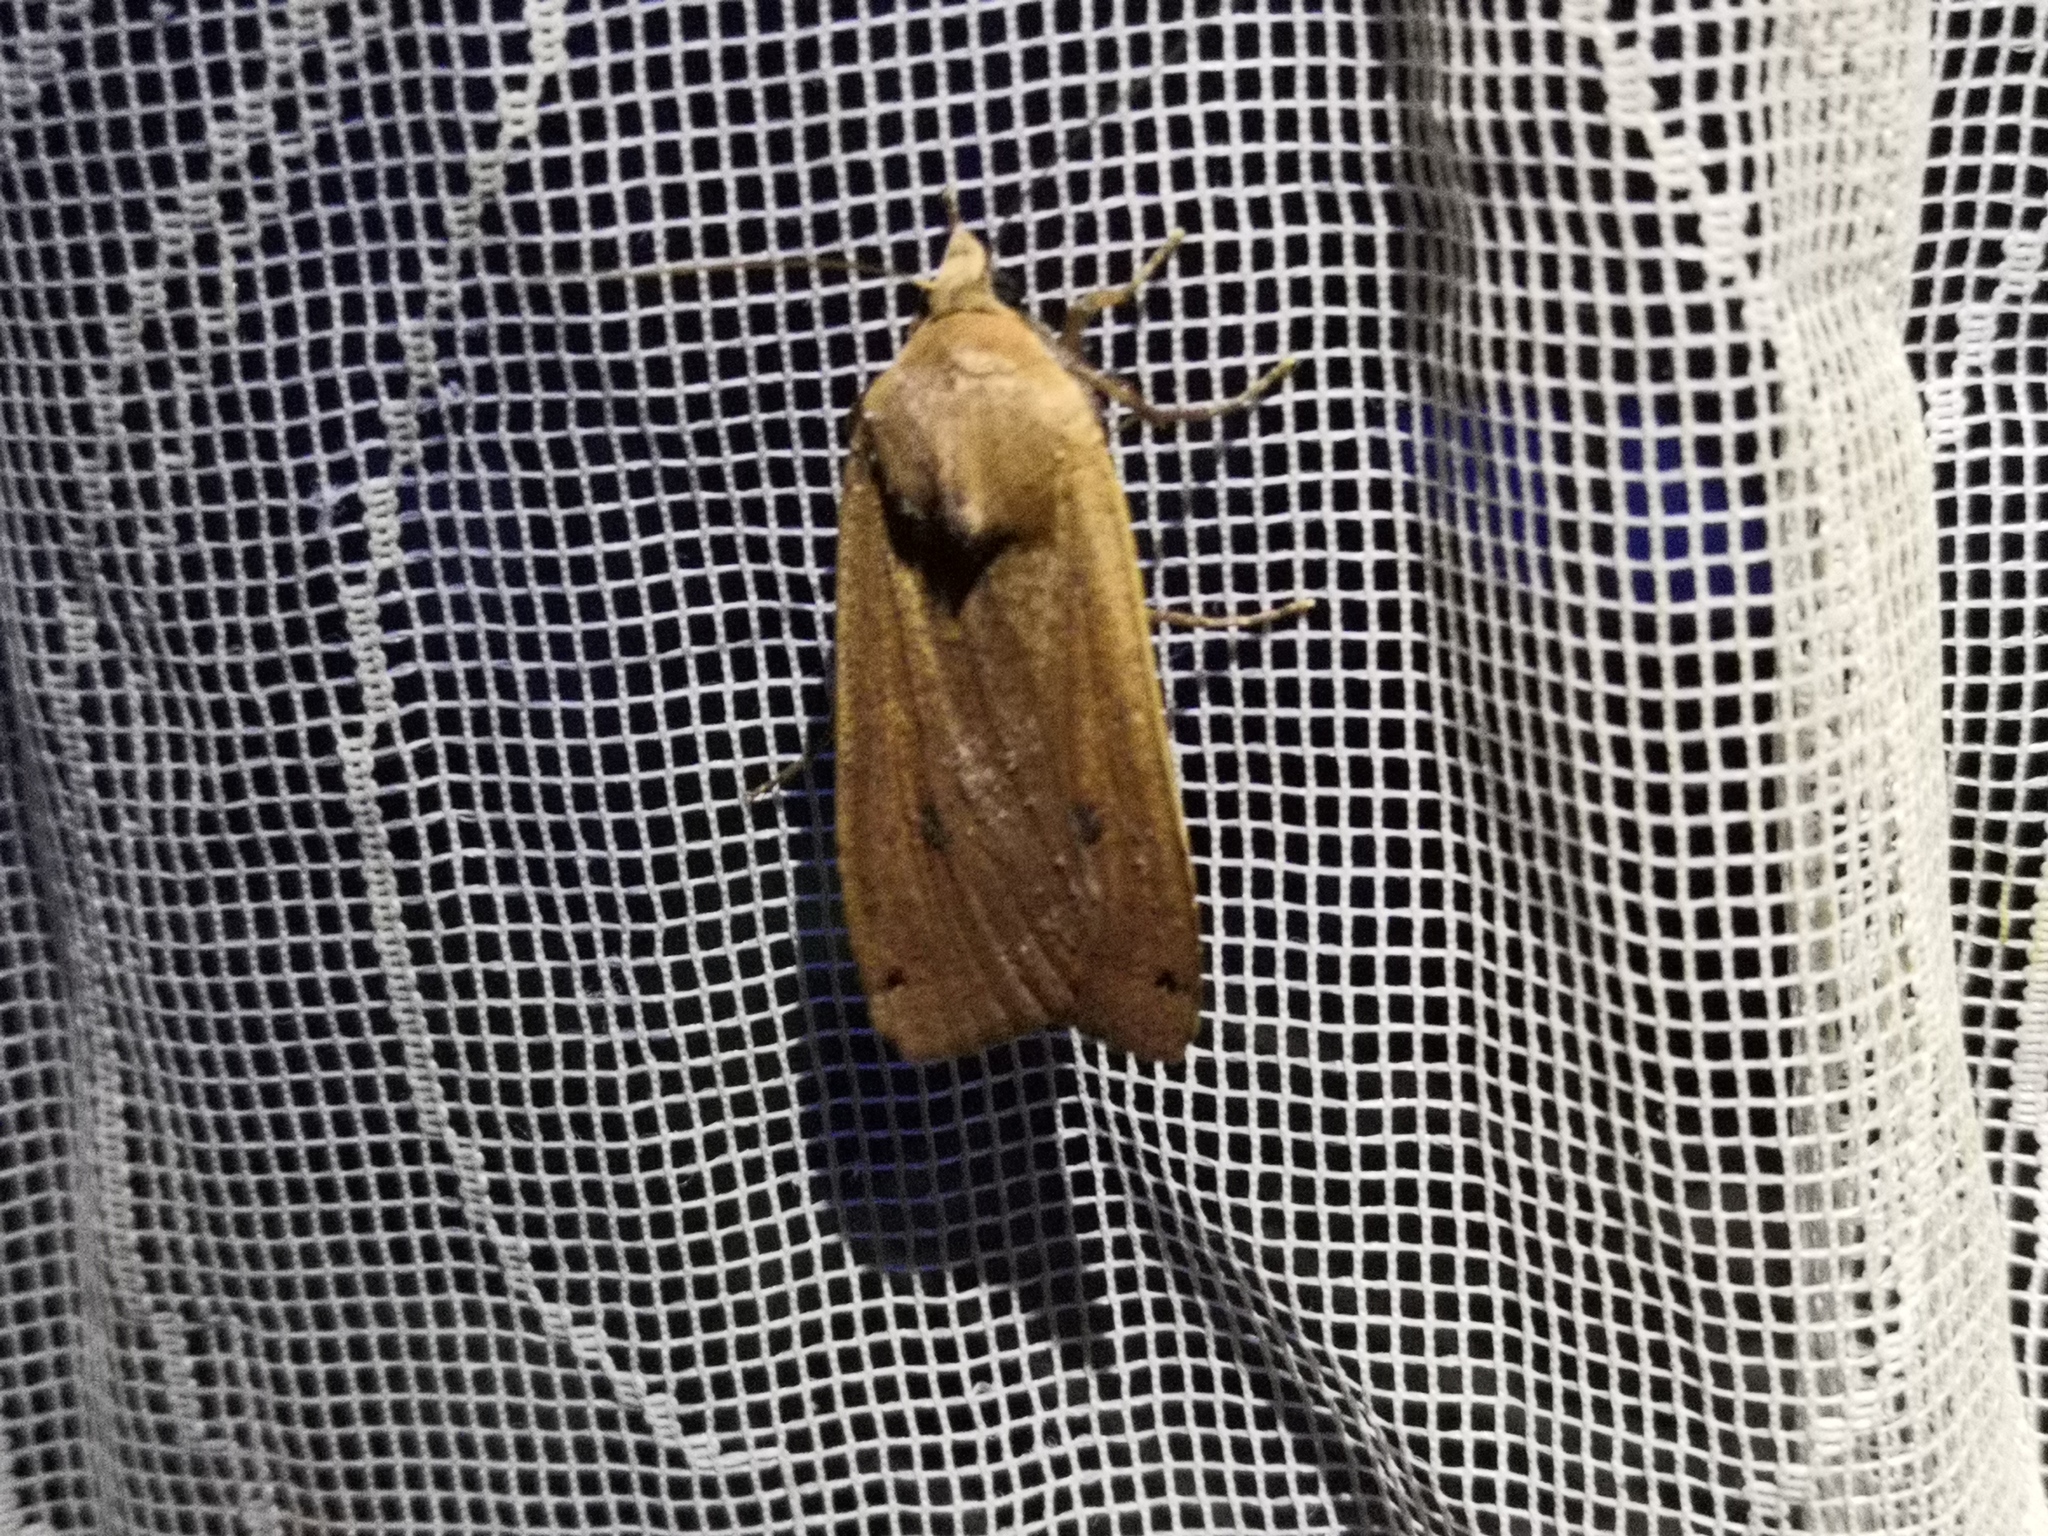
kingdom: Animalia
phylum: Arthropoda
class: Insecta
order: Lepidoptera
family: Noctuidae
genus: Noctua
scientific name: Noctua pronuba
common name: Large yellow underwing
